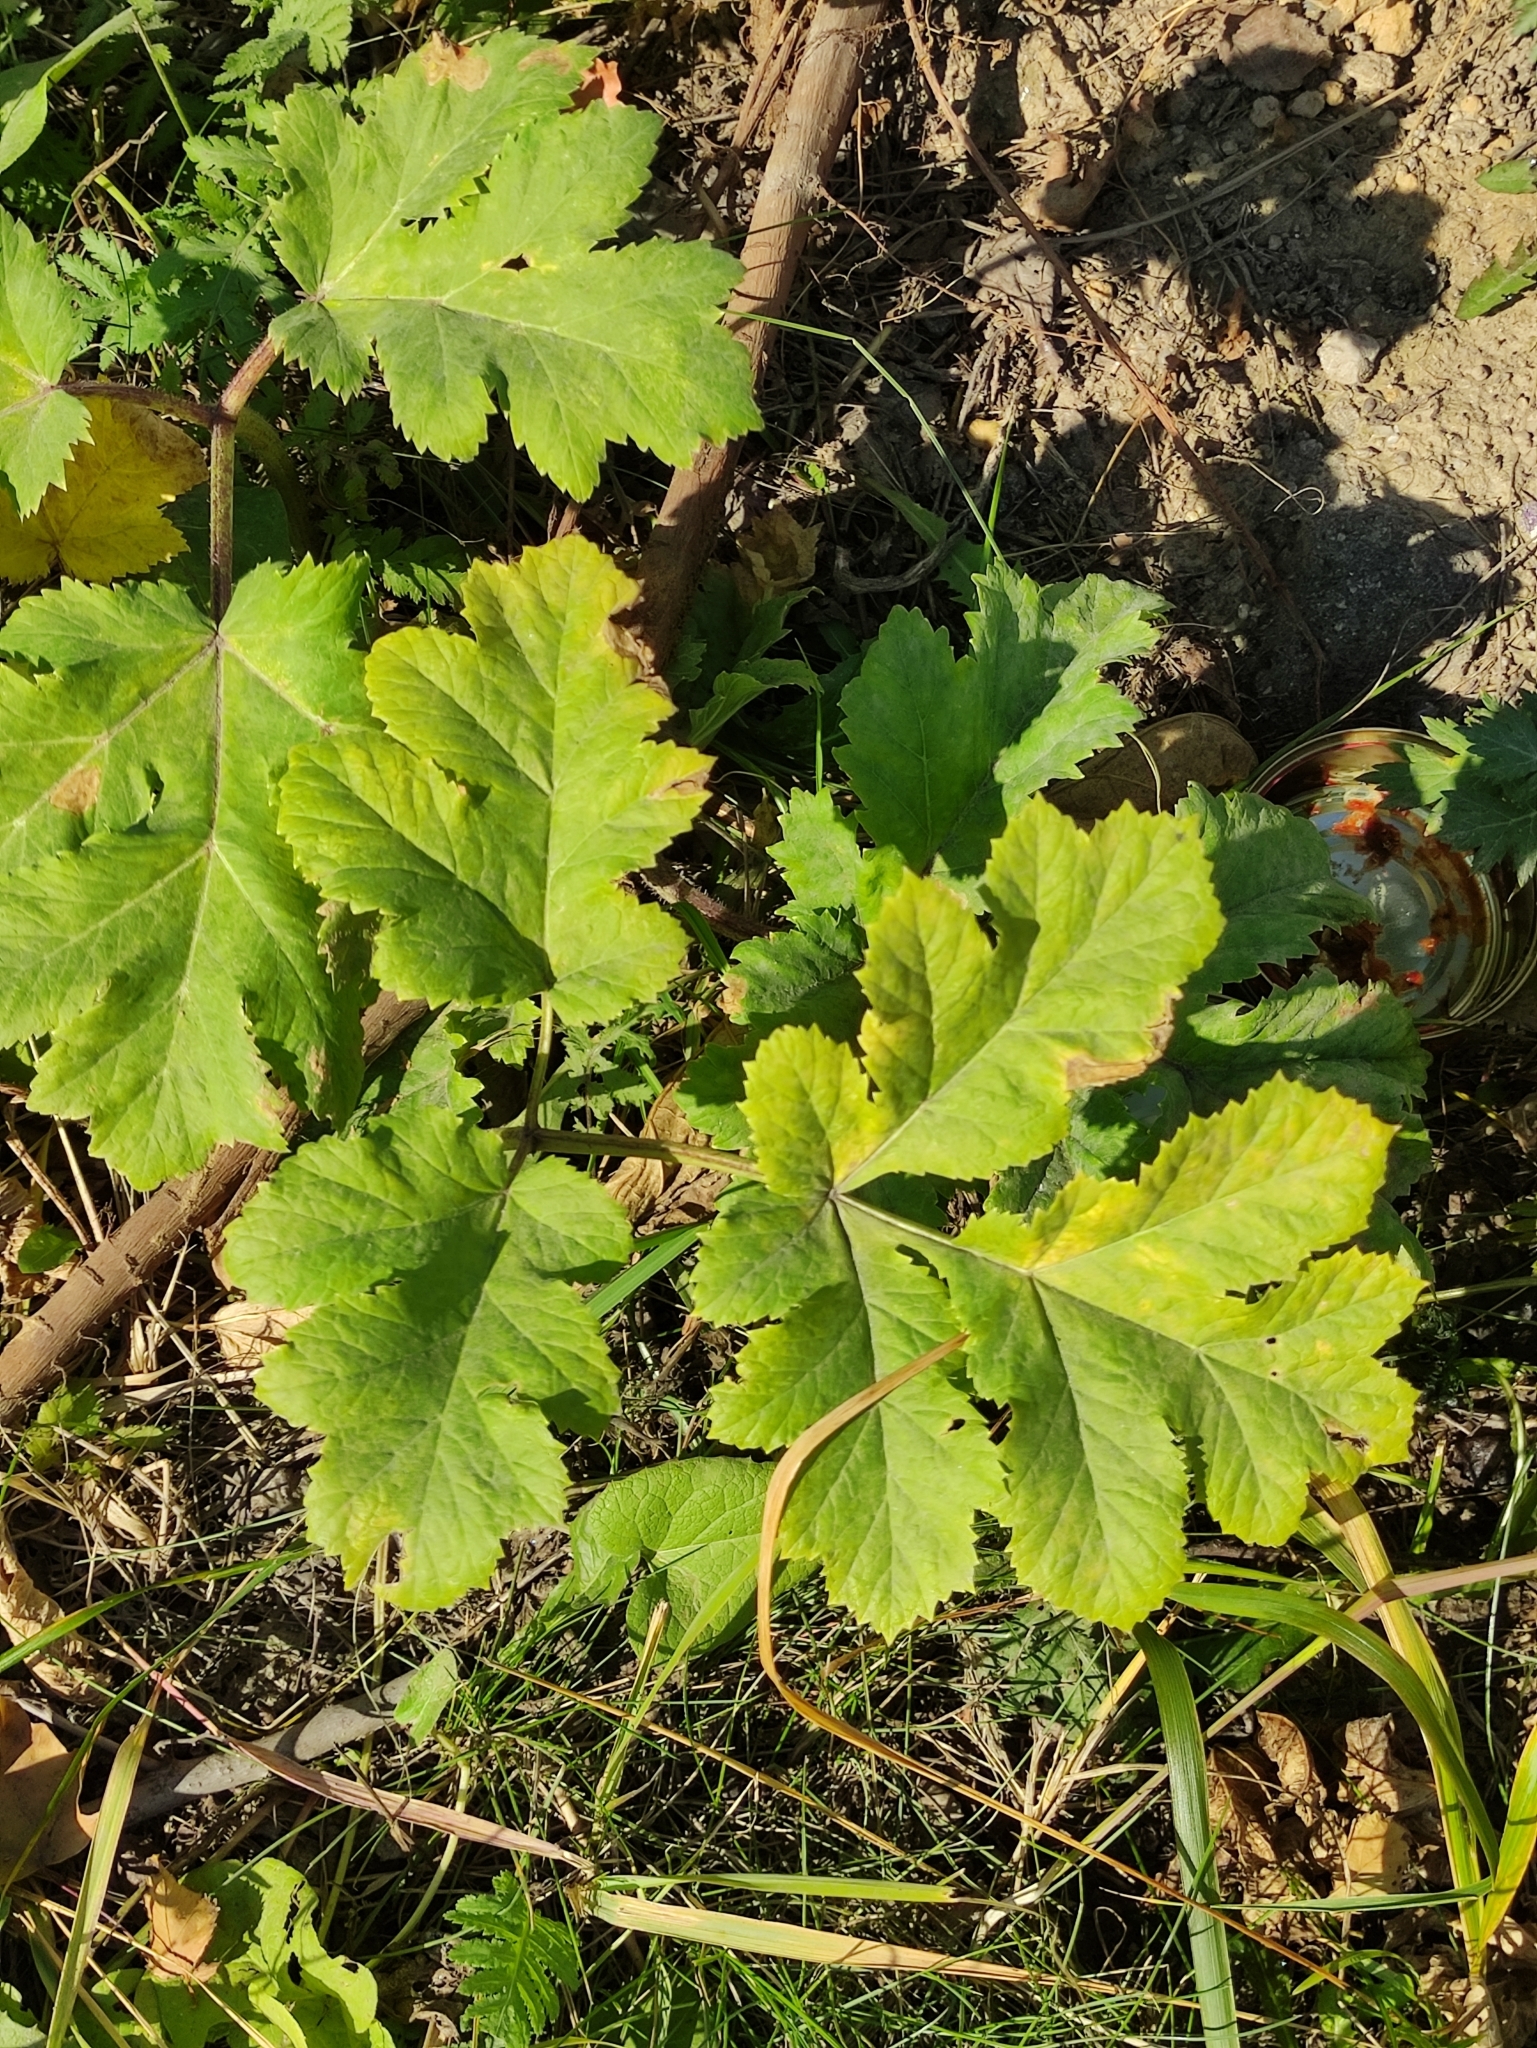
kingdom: Plantae
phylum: Tracheophyta
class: Magnoliopsida
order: Apiales
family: Apiaceae
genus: Heracleum
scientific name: Heracleum sosnowskyi
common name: Sosnowsky's hogweed
